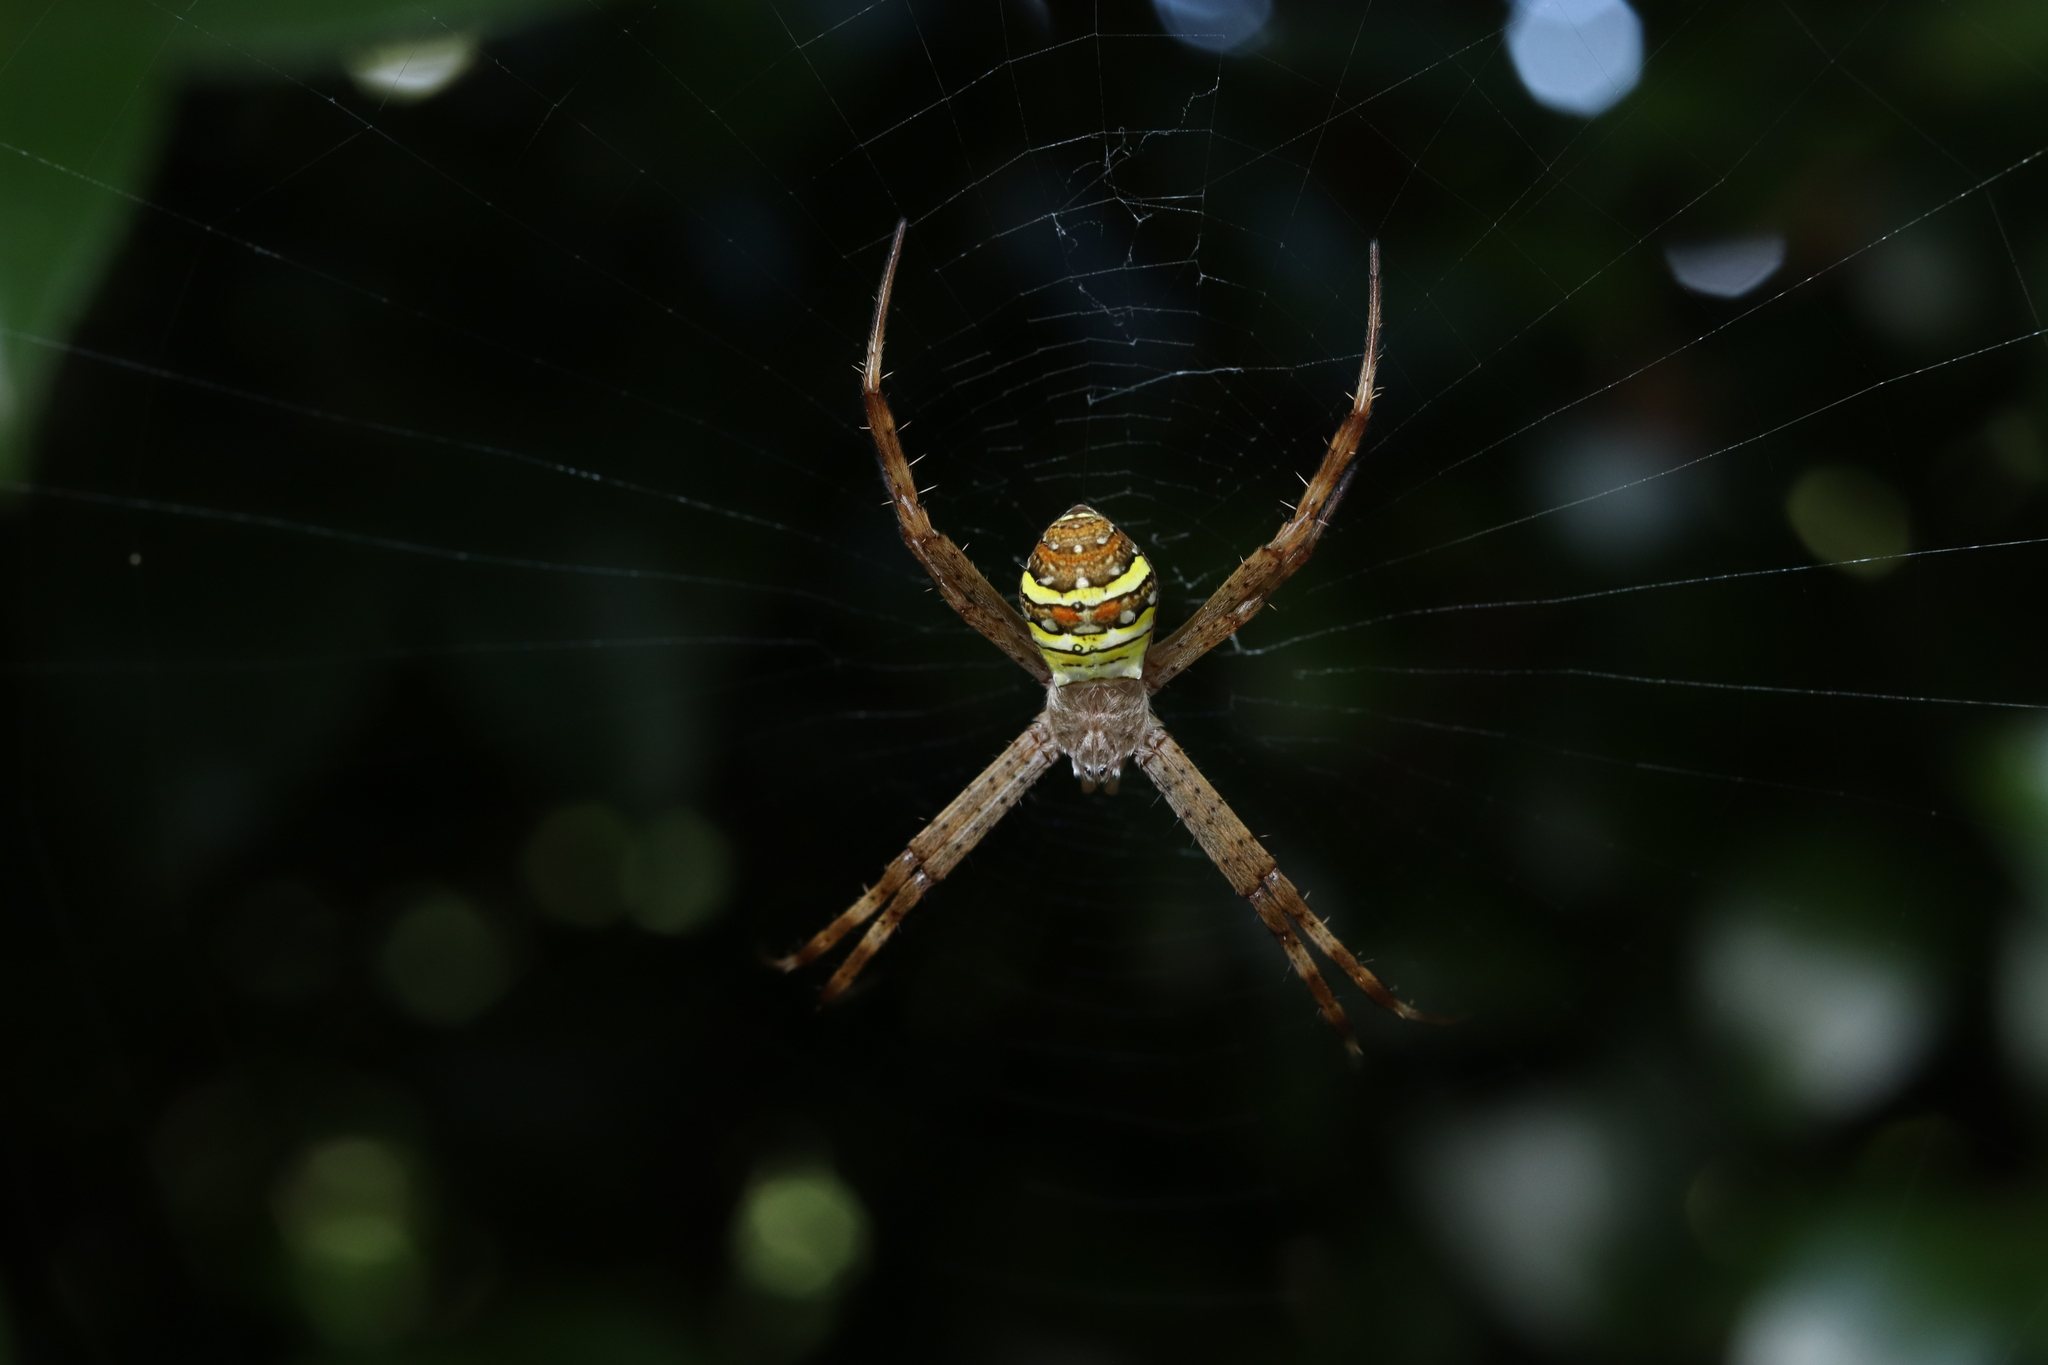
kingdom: Animalia
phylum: Arthropoda
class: Arachnida
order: Araneae
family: Araneidae
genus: Argiope
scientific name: Argiope minuta
